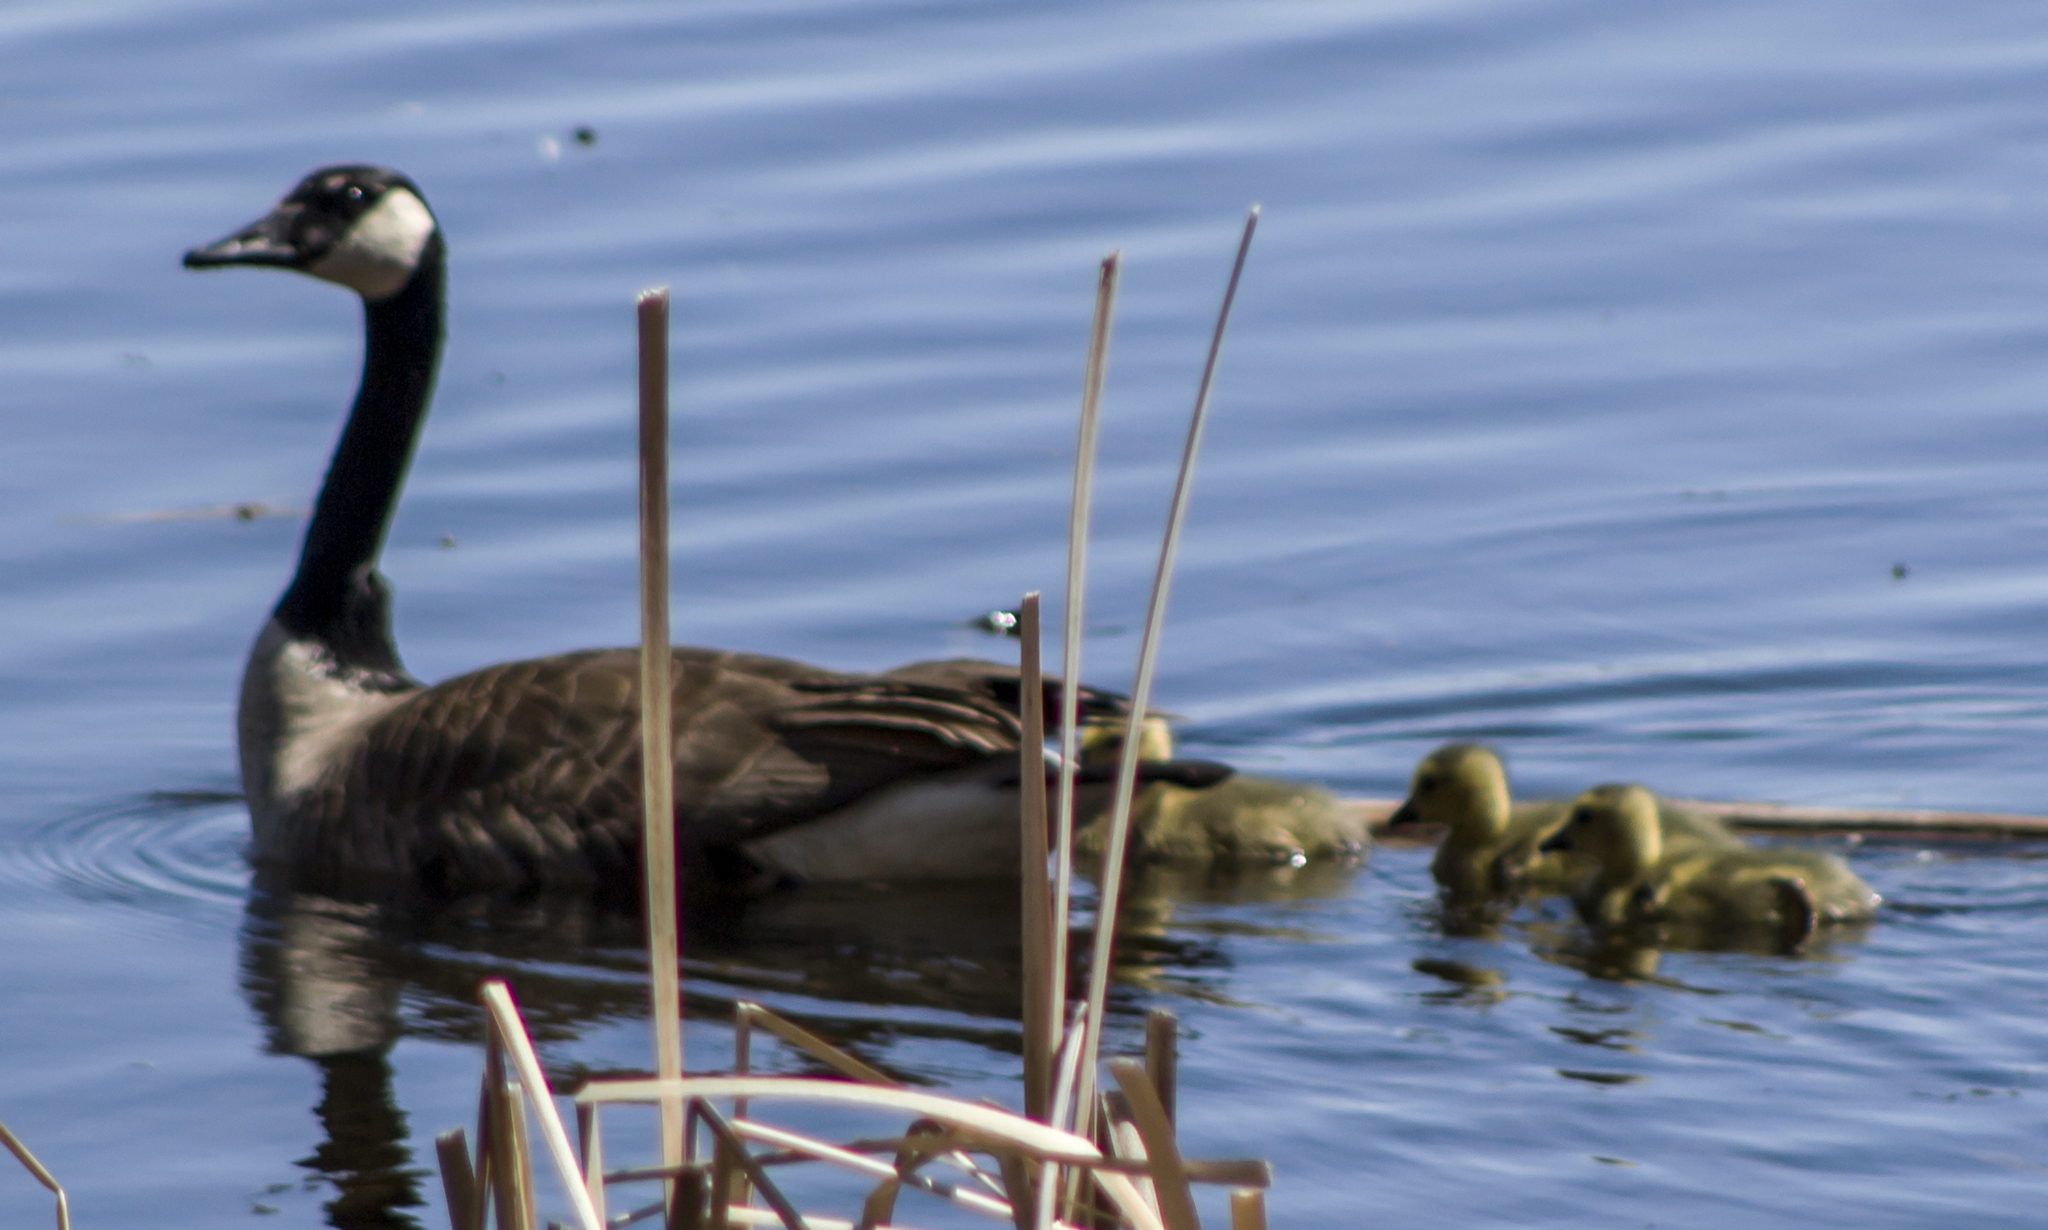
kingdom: Animalia
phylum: Chordata
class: Aves
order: Anseriformes
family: Anatidae
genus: Branta
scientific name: Branta canadensis
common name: Canada goose
